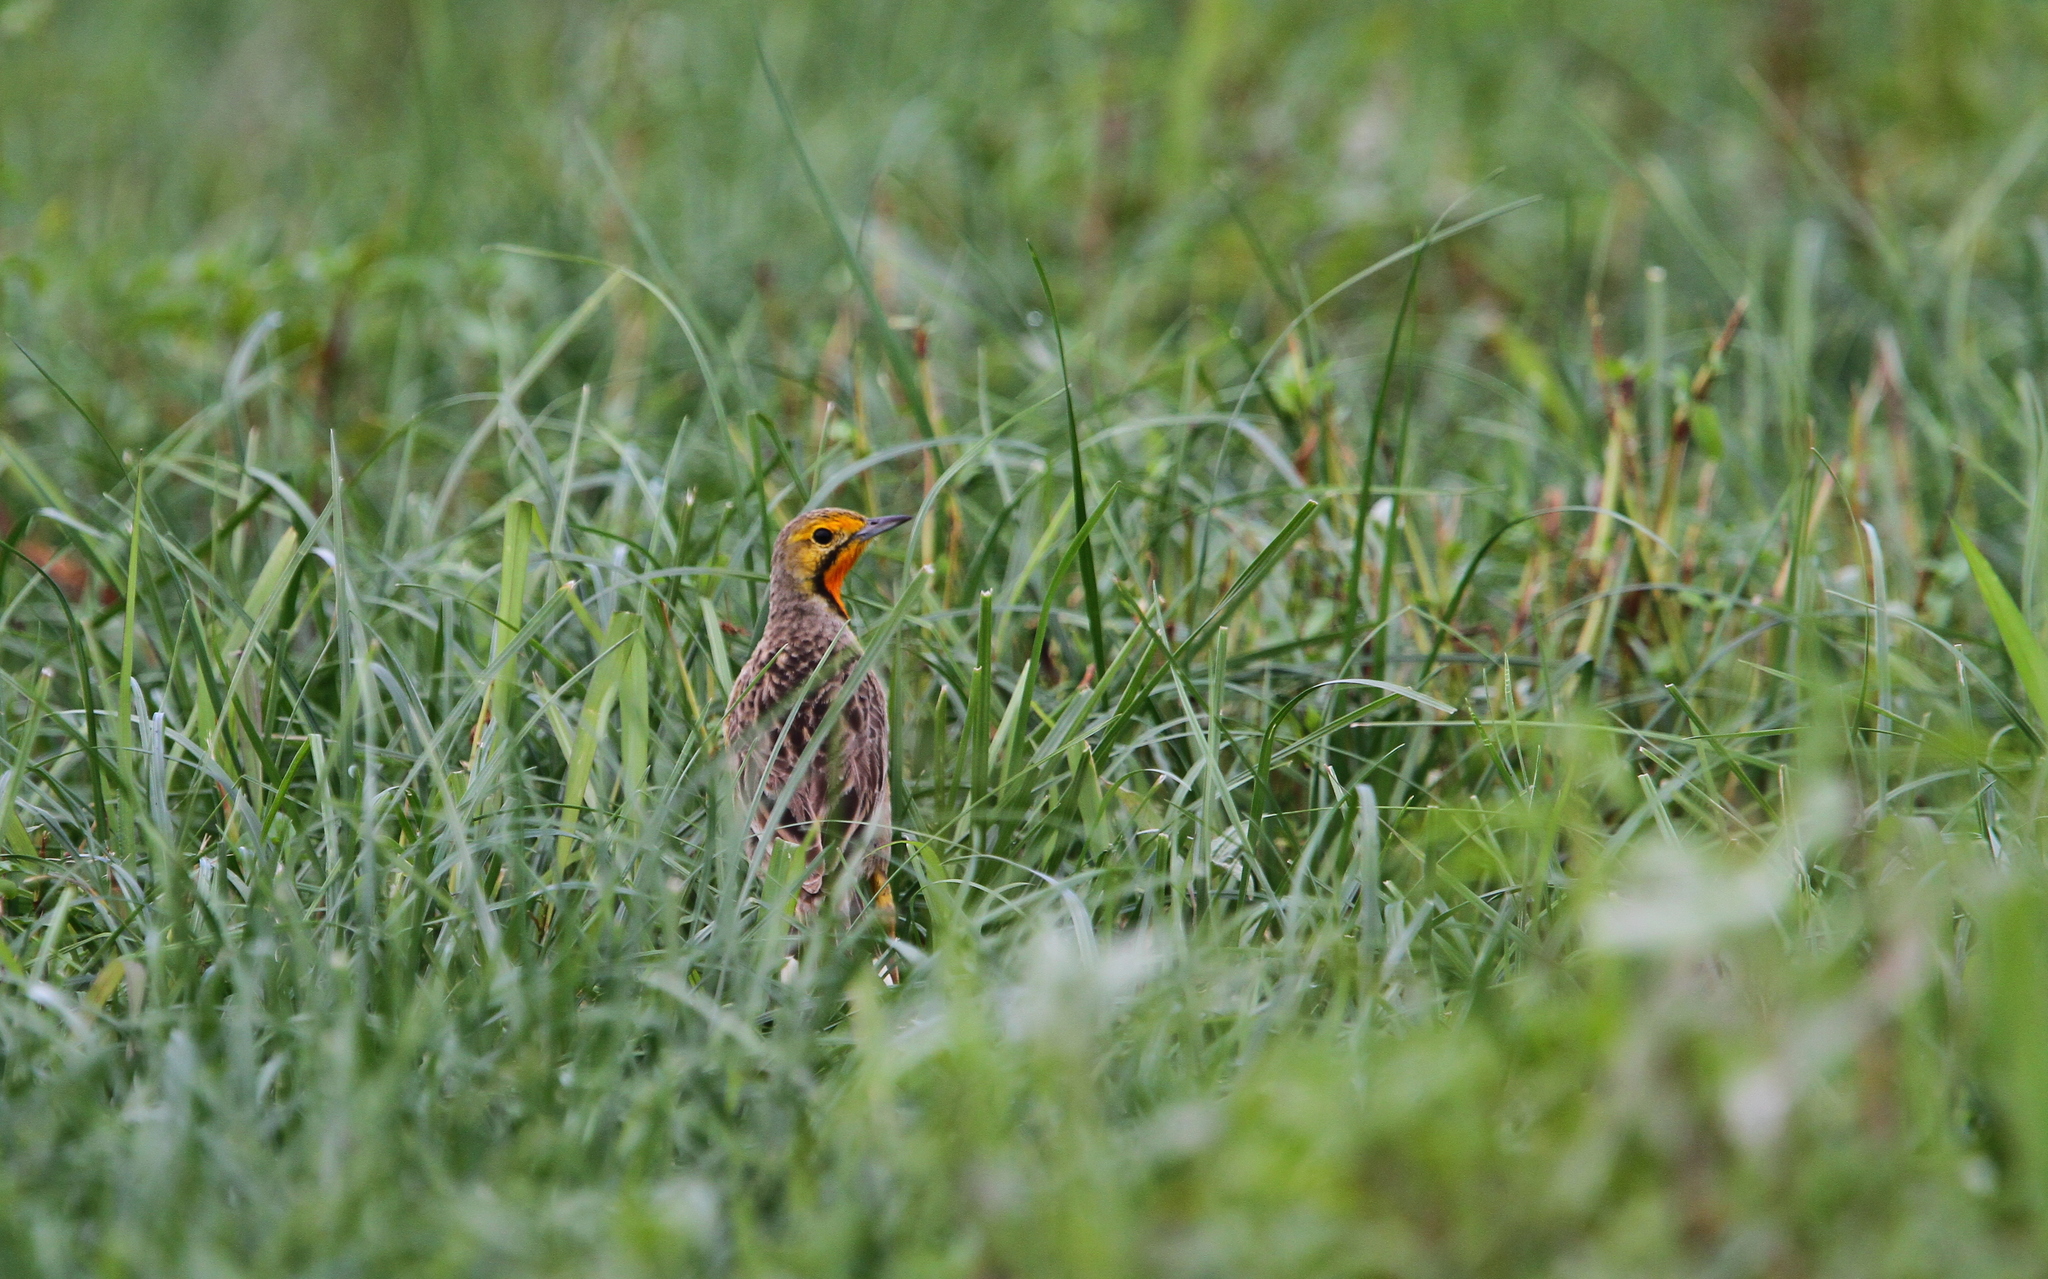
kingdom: Animalia
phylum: Chordata
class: Aves
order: Passeriformes
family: Motacillidae
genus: Macronyx
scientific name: Macronyx capensis
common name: Cape longclaw
